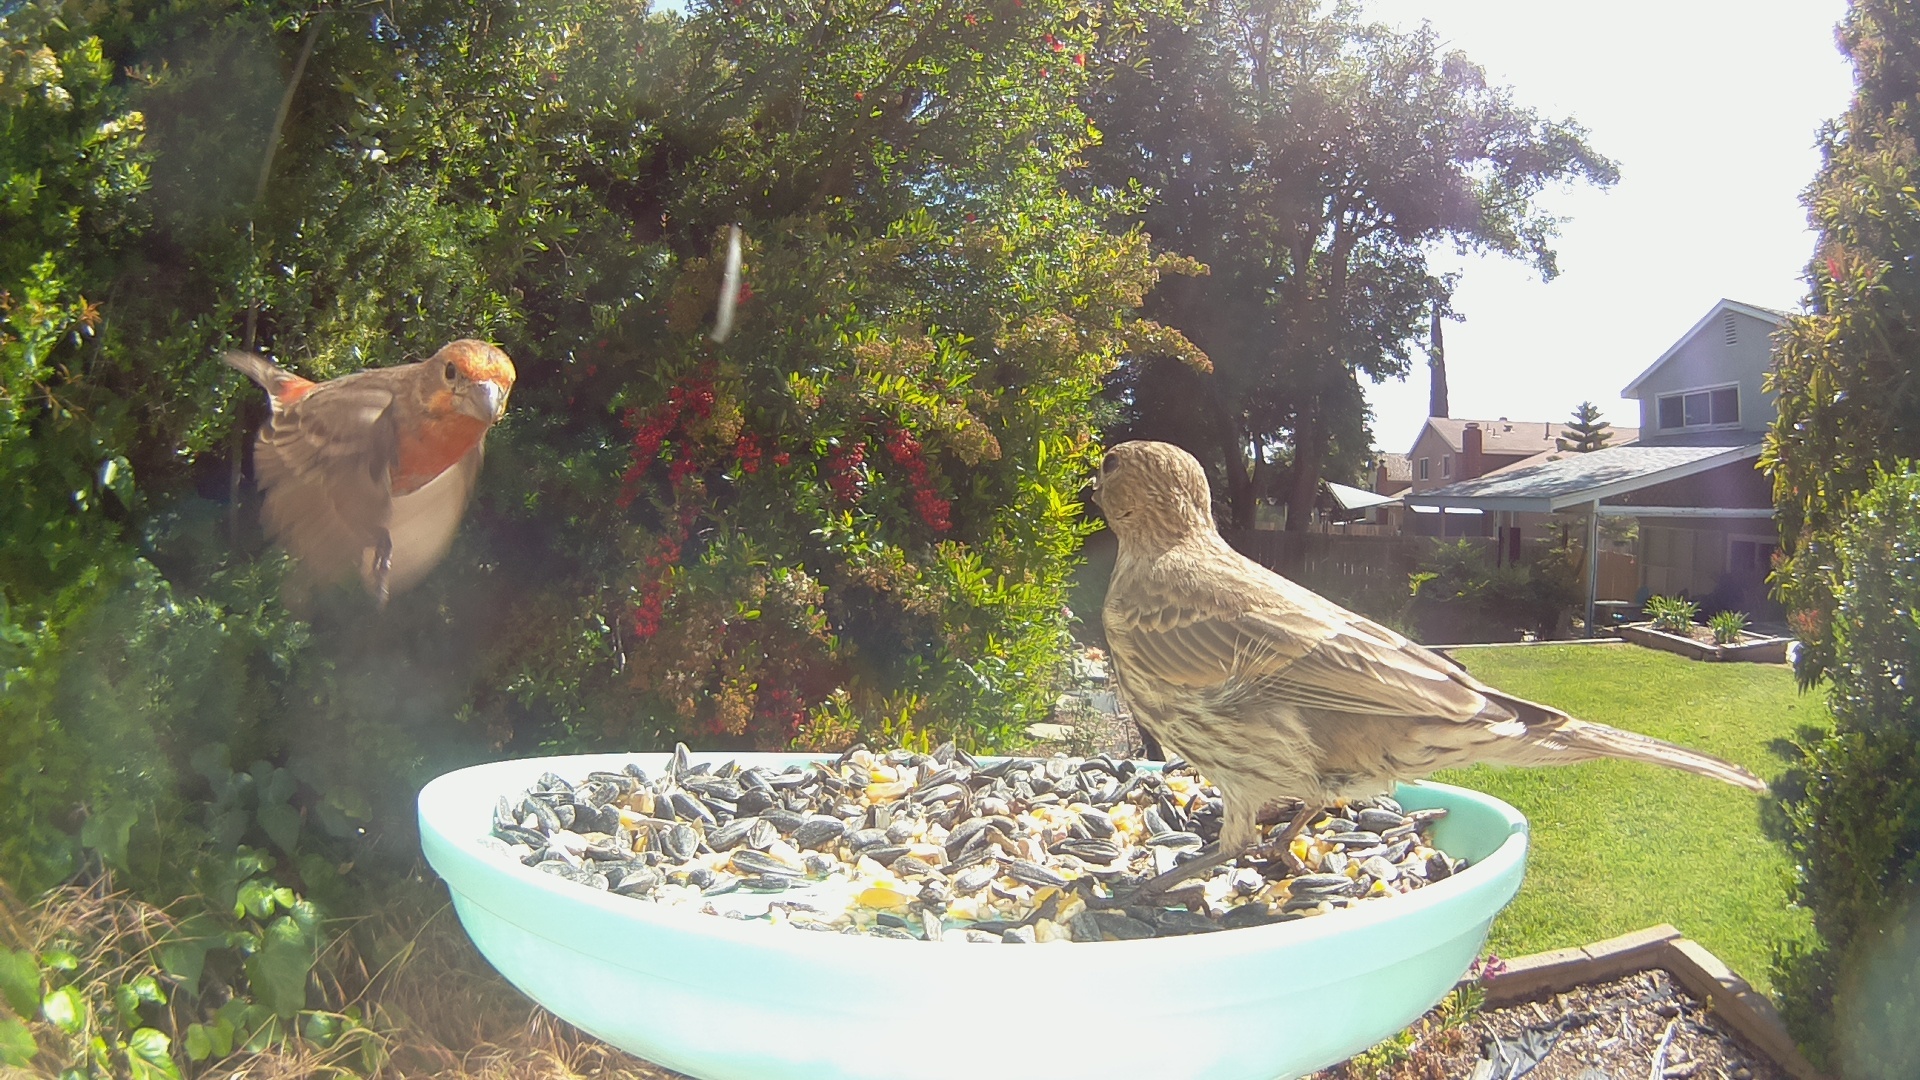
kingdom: Animalia
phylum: Chordata
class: Aves
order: Passeriformes
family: Fringillidae
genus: Haemorhous
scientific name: Haemorhous mexicanus
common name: House finch
